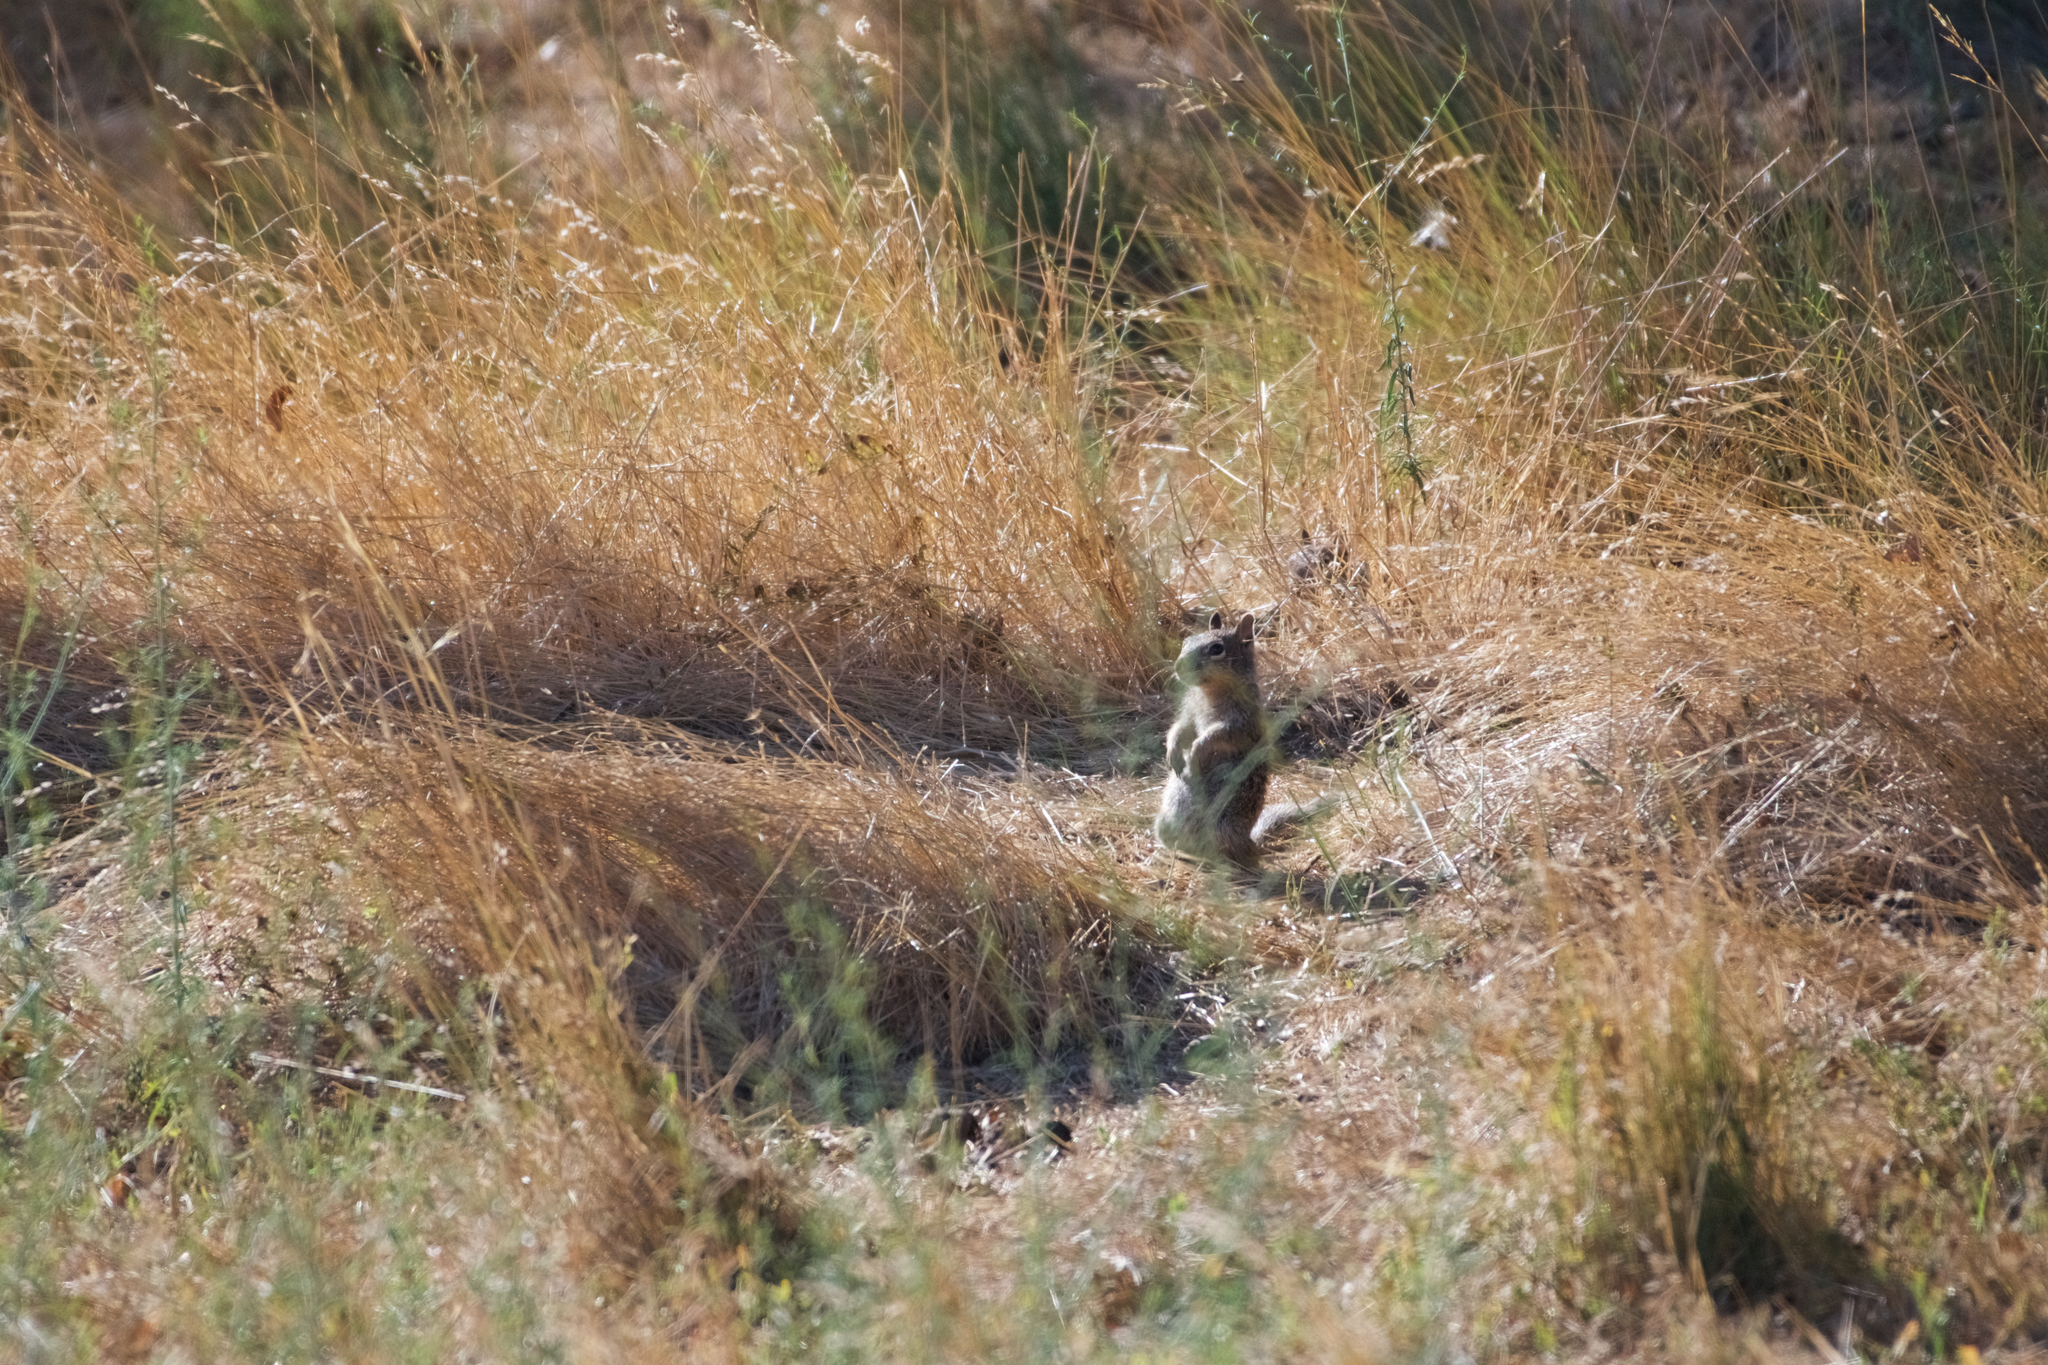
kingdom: Animalia
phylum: Chordata
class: Mammalia
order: Rodentia
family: Sciuridae
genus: Otospermophilus
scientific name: Otospermophilus beecheyi
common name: California ground squirrel
